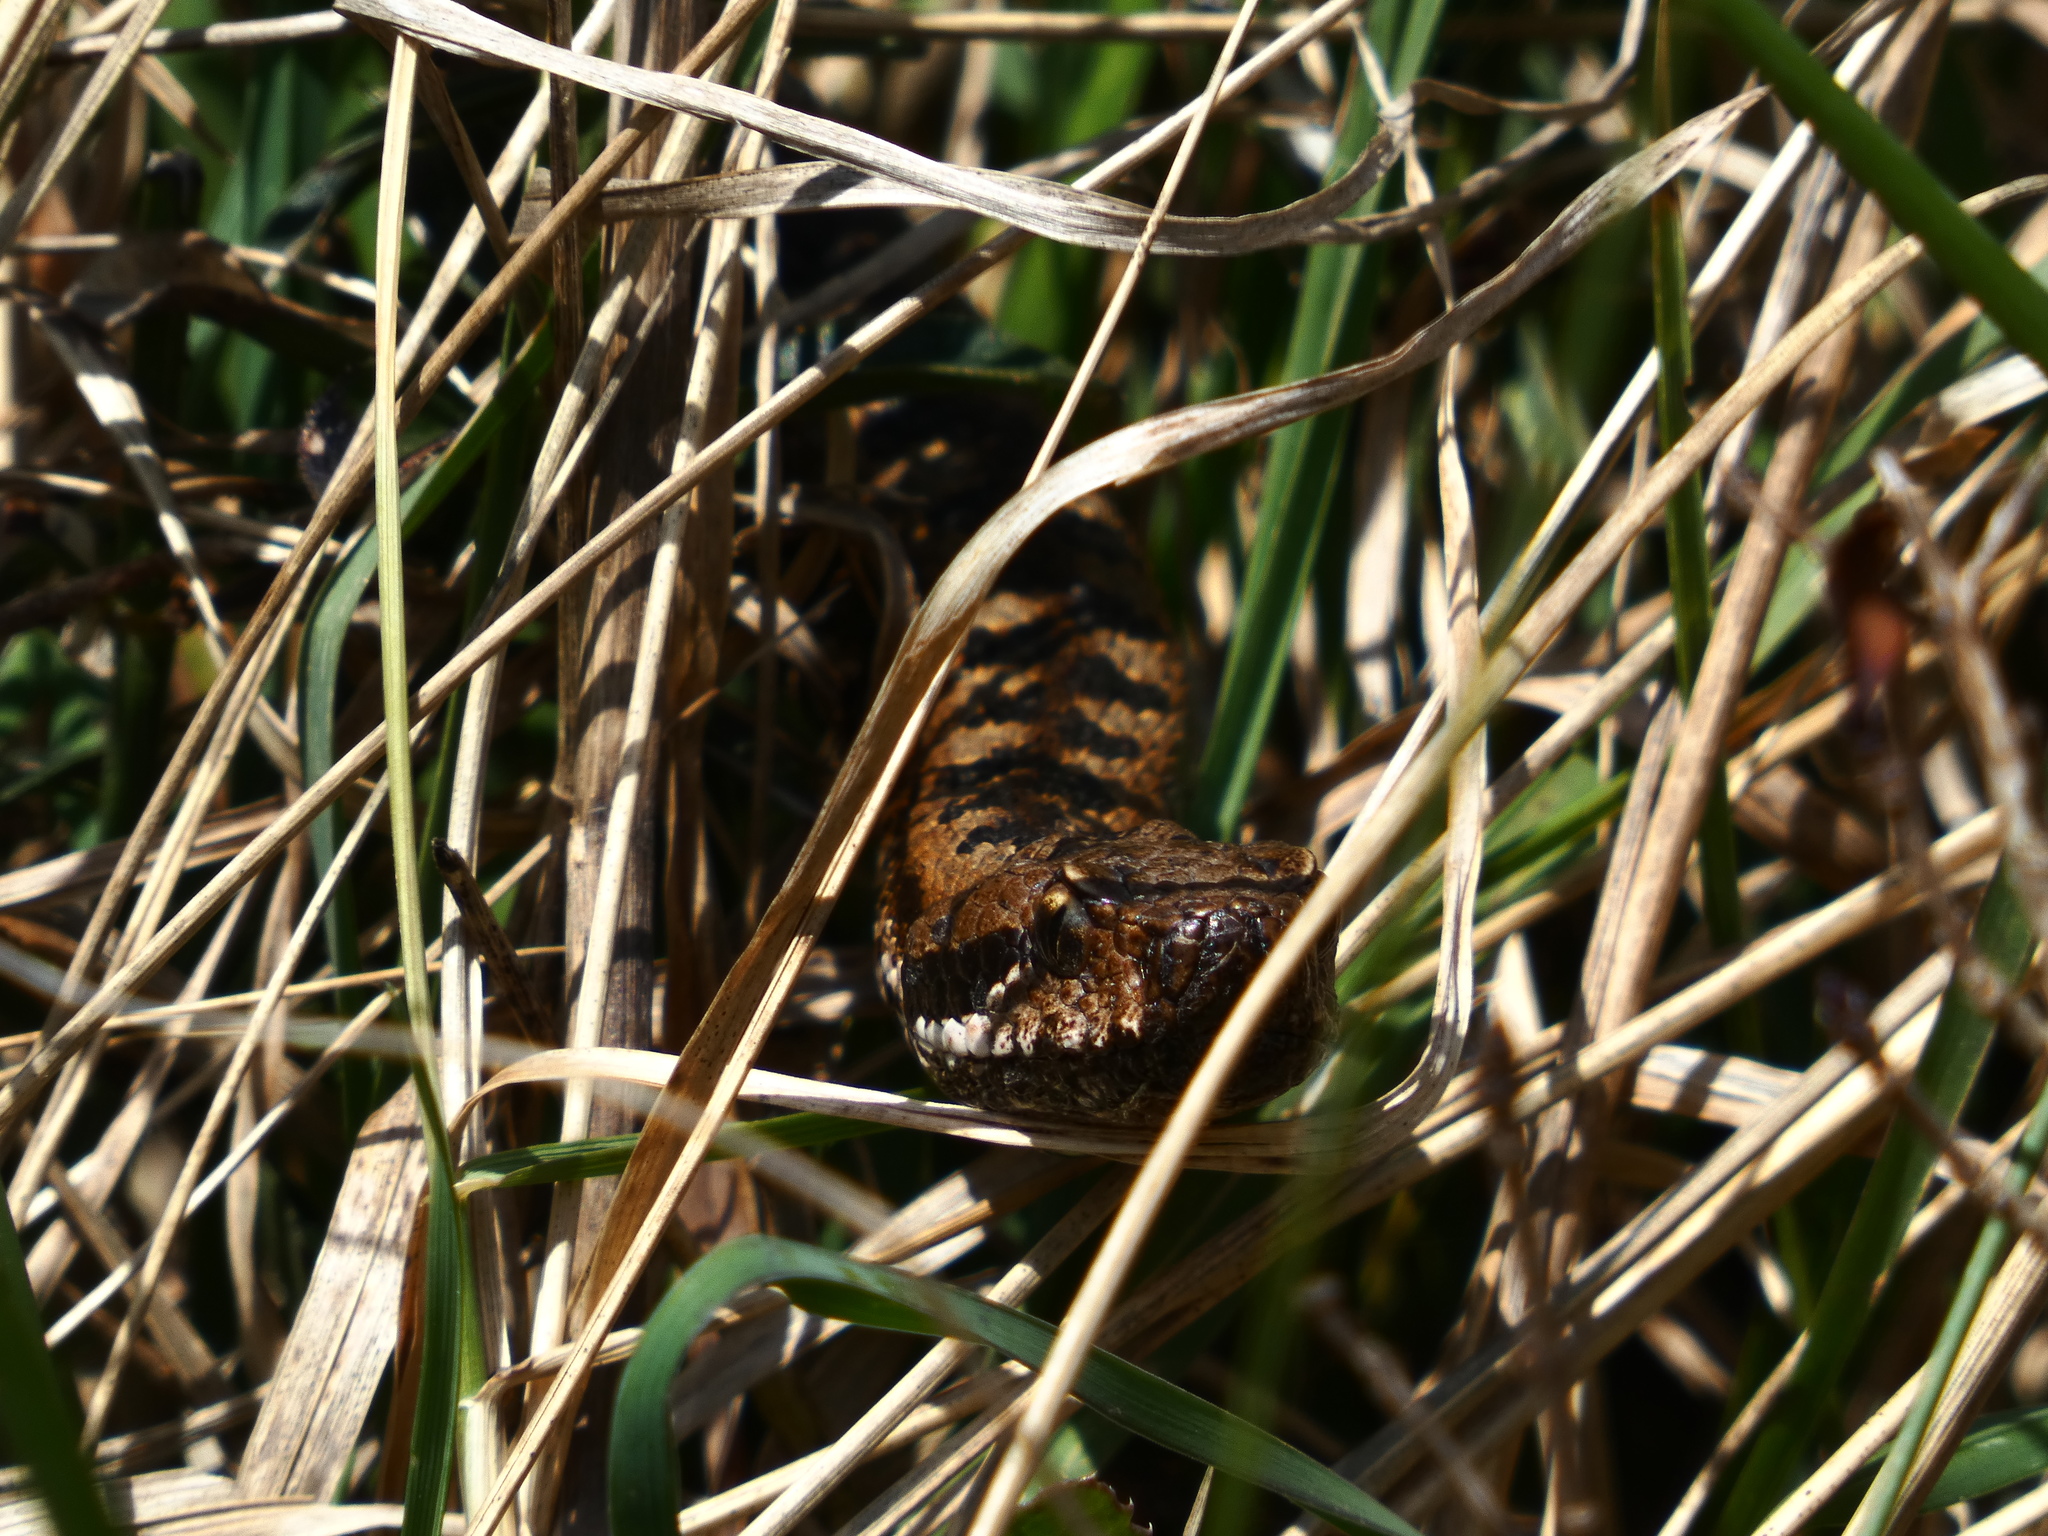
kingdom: Animalia
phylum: Chordata
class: Squamata
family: Viperidae
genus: Vipera
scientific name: Vipera aspis
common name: Asp viper
